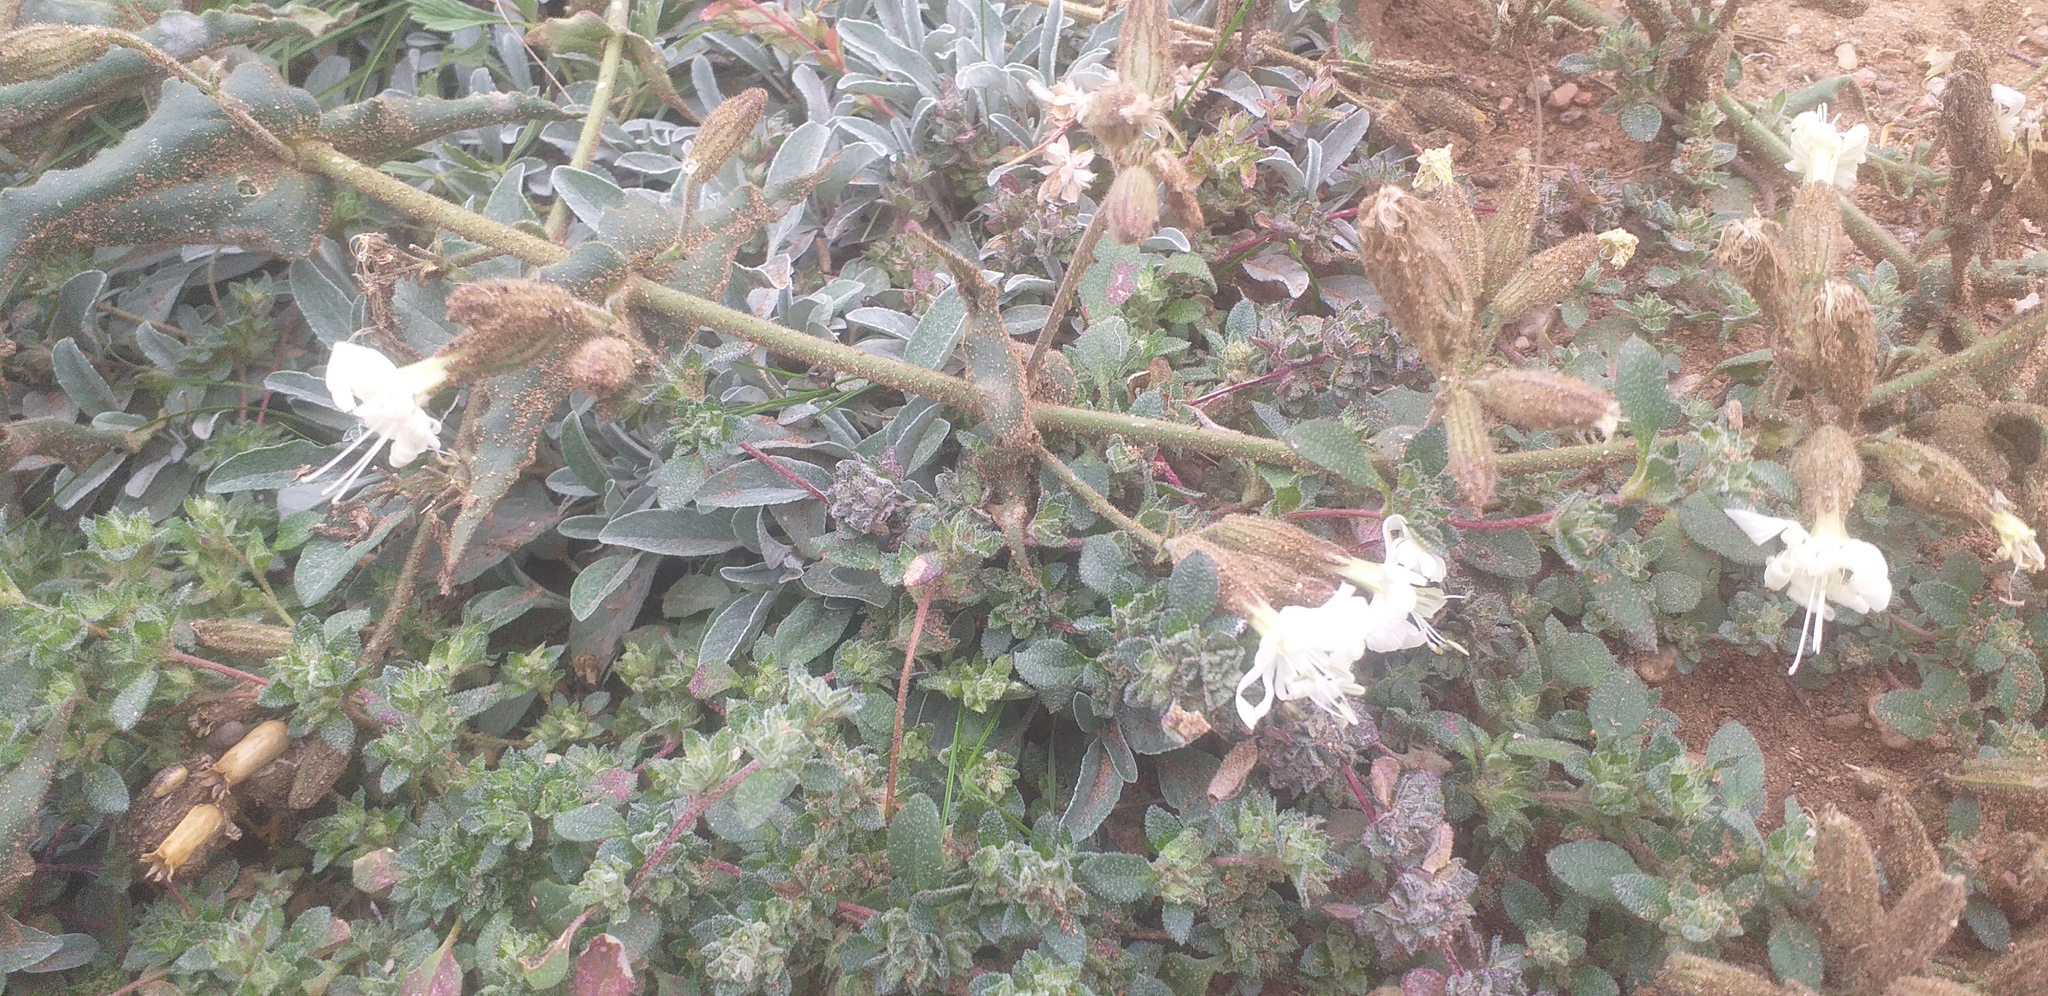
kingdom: Plantae
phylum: Tracheophyta
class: Magnoliopsida
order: Caryophyllales
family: Caryophyllaceae
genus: Silene
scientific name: Silene viscosa
